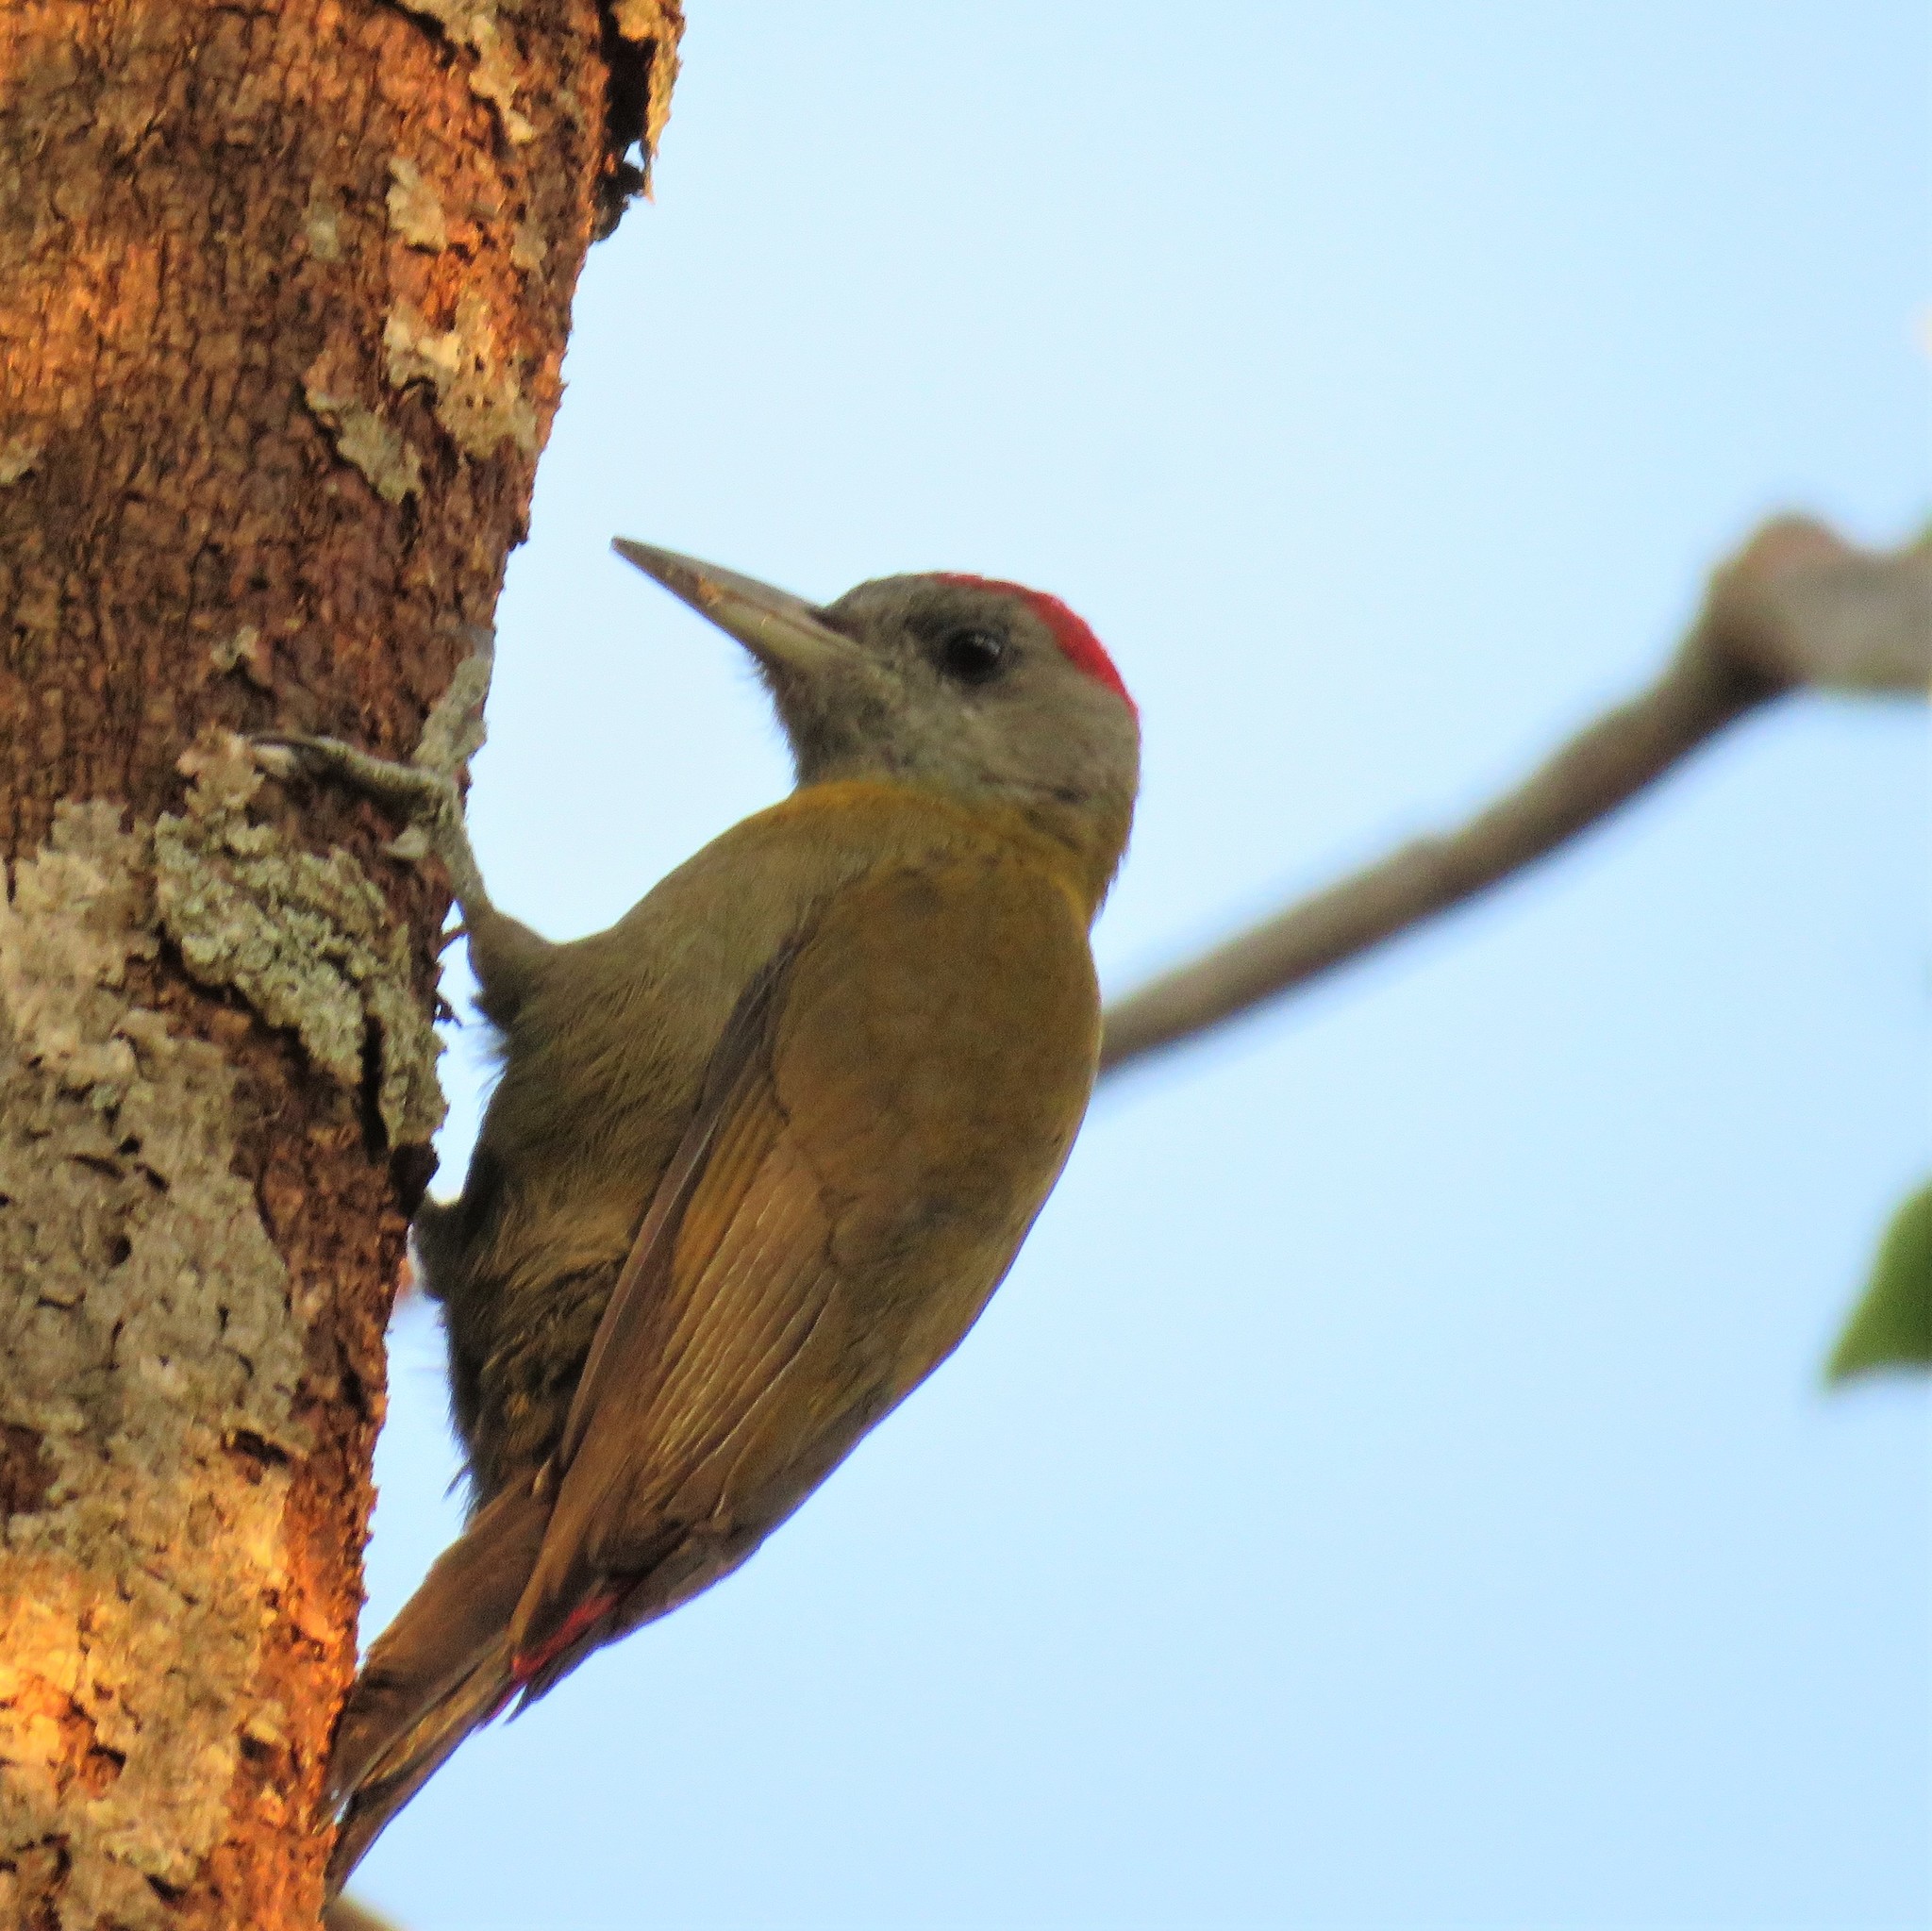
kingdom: Animalia
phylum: Chordata
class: Aves
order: Piciformes
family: Picidae
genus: Dendropicos
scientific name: Dendropicos griseocephalus
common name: Olive woodpecker
